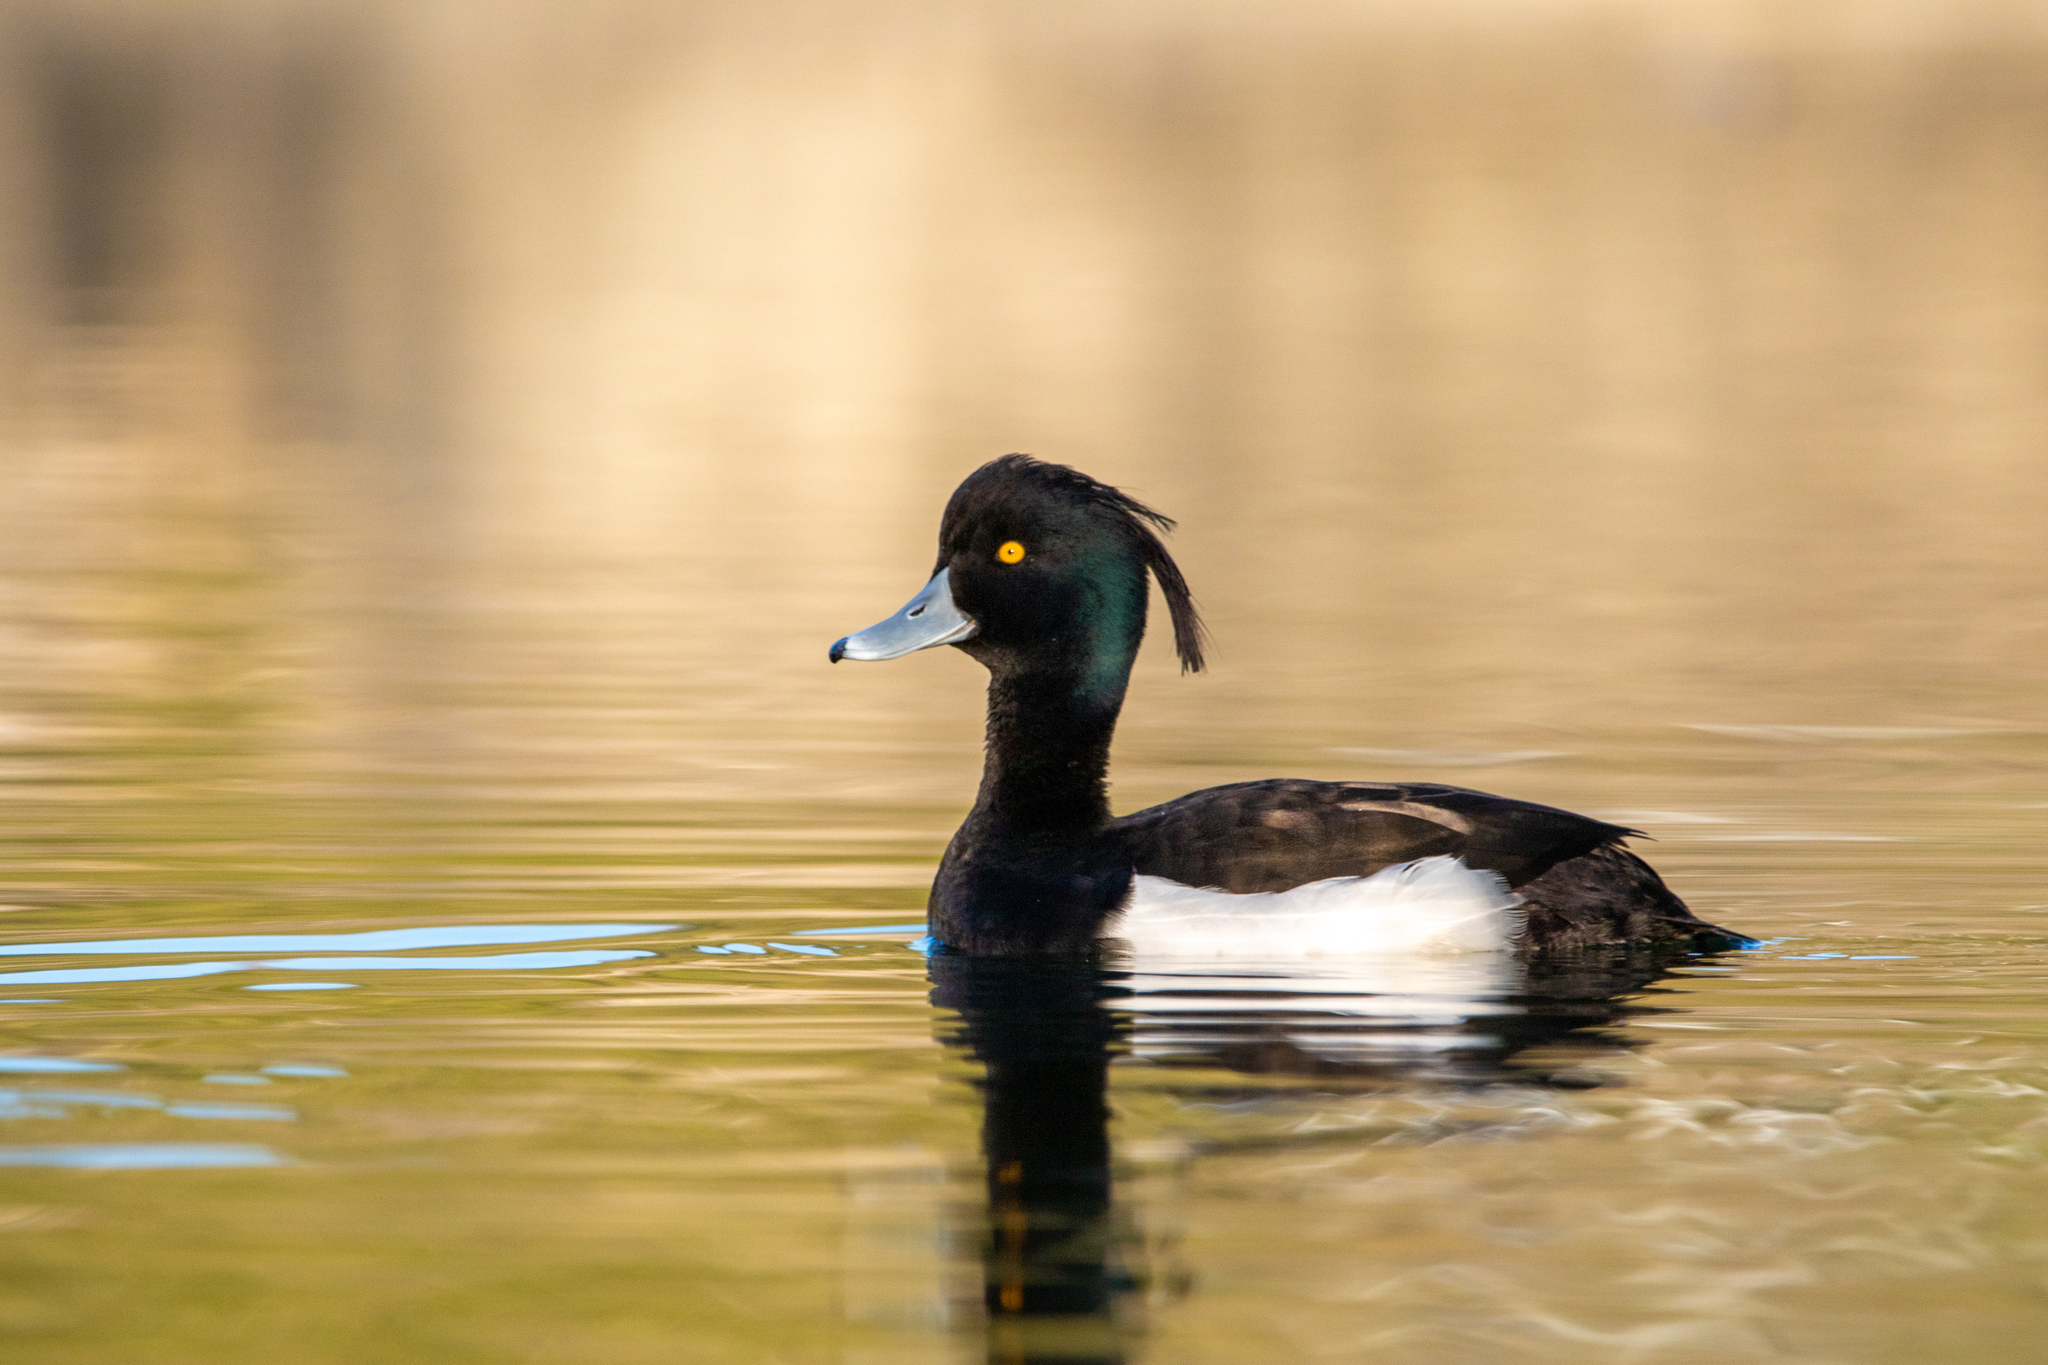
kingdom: Animalia
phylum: Chordata
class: Aves
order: Anseriformes
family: Anatidae
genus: Aythya
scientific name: Aythya fuligula
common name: Tufted duck
